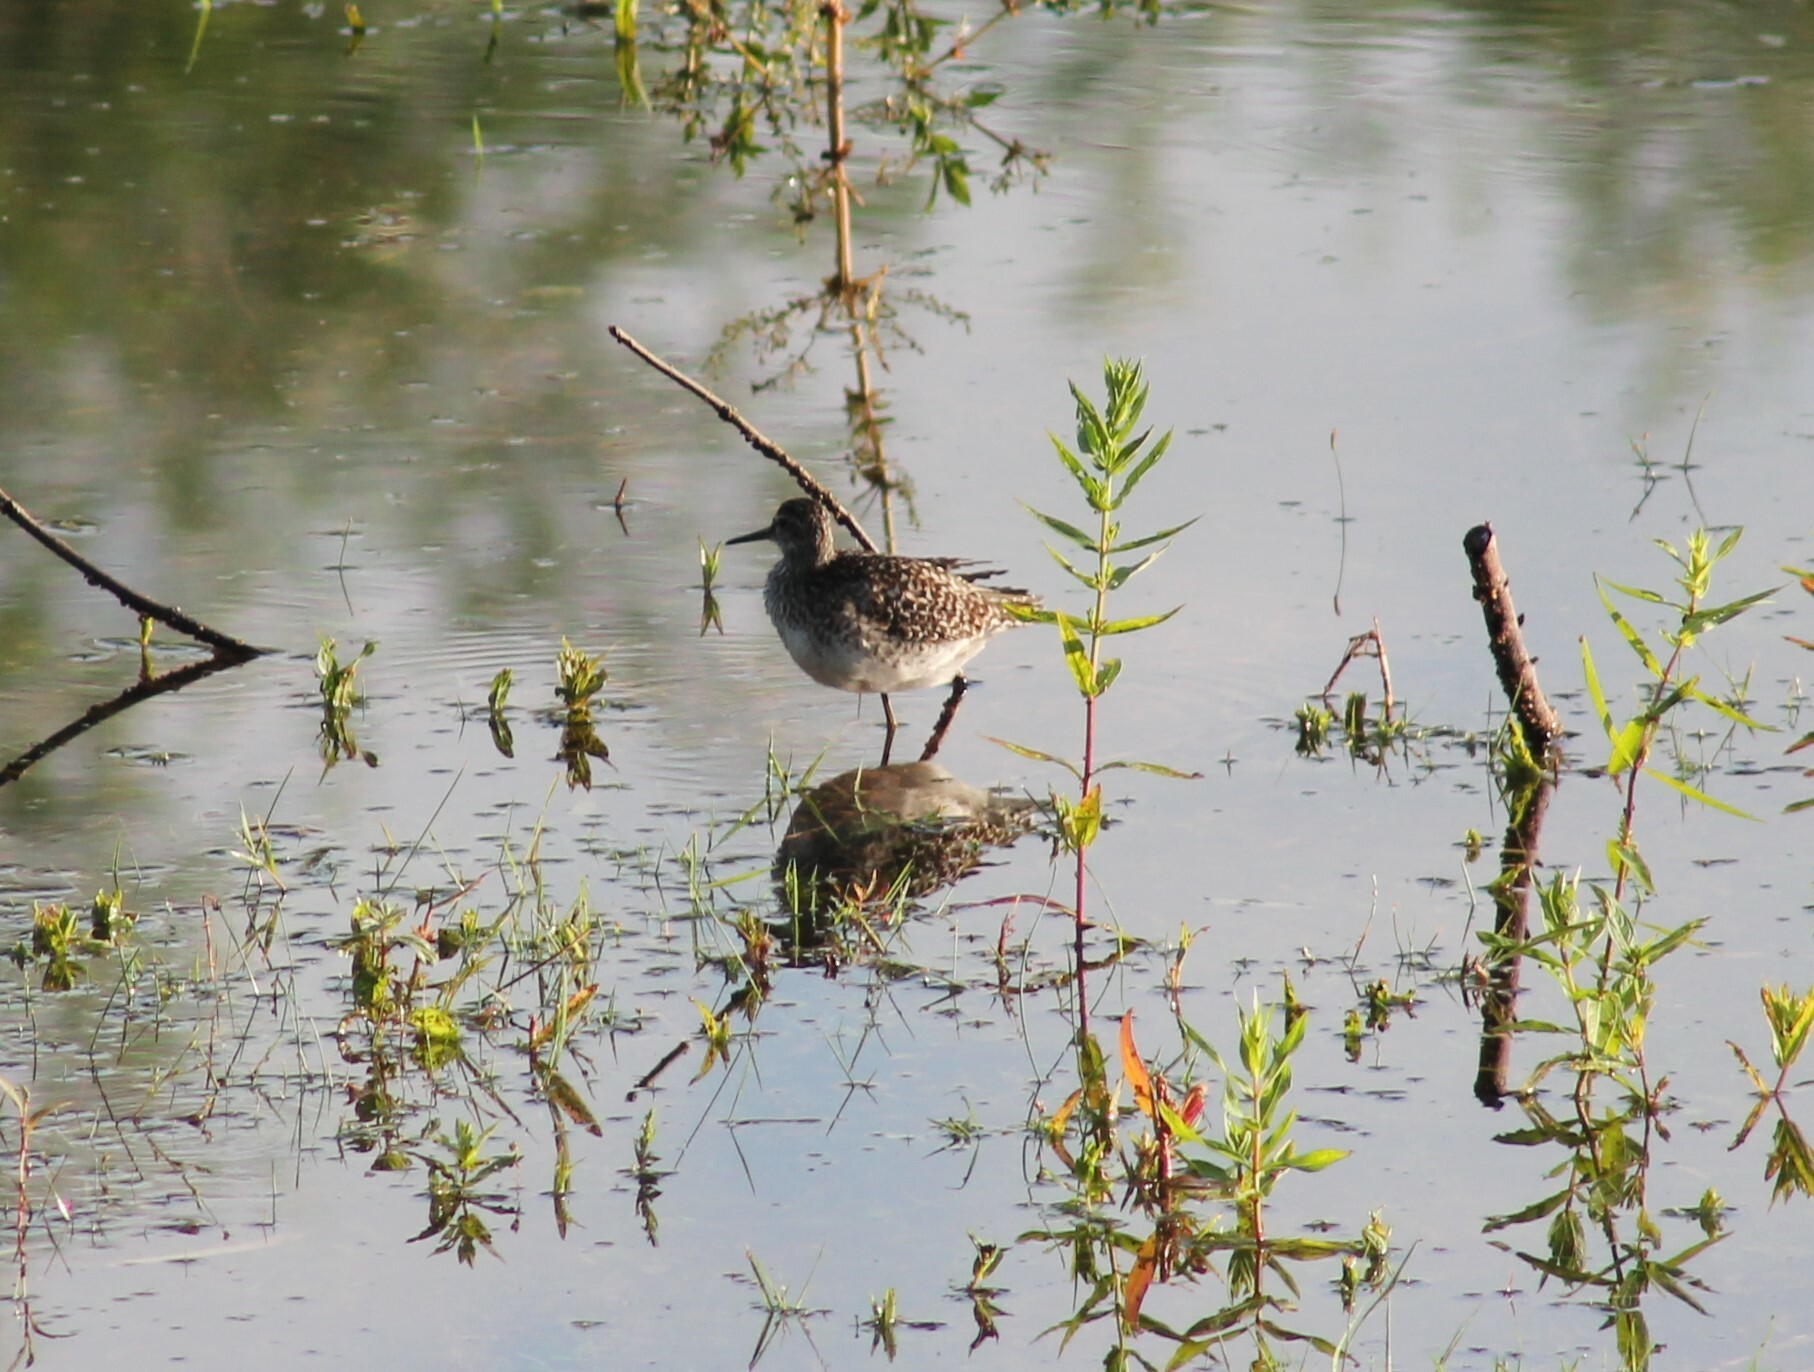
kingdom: Animalia
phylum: Chordata
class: Aves
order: Charadriiformes
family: Scolopacidae
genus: Tringa
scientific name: Tringa glareola
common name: Wood sandpiper
